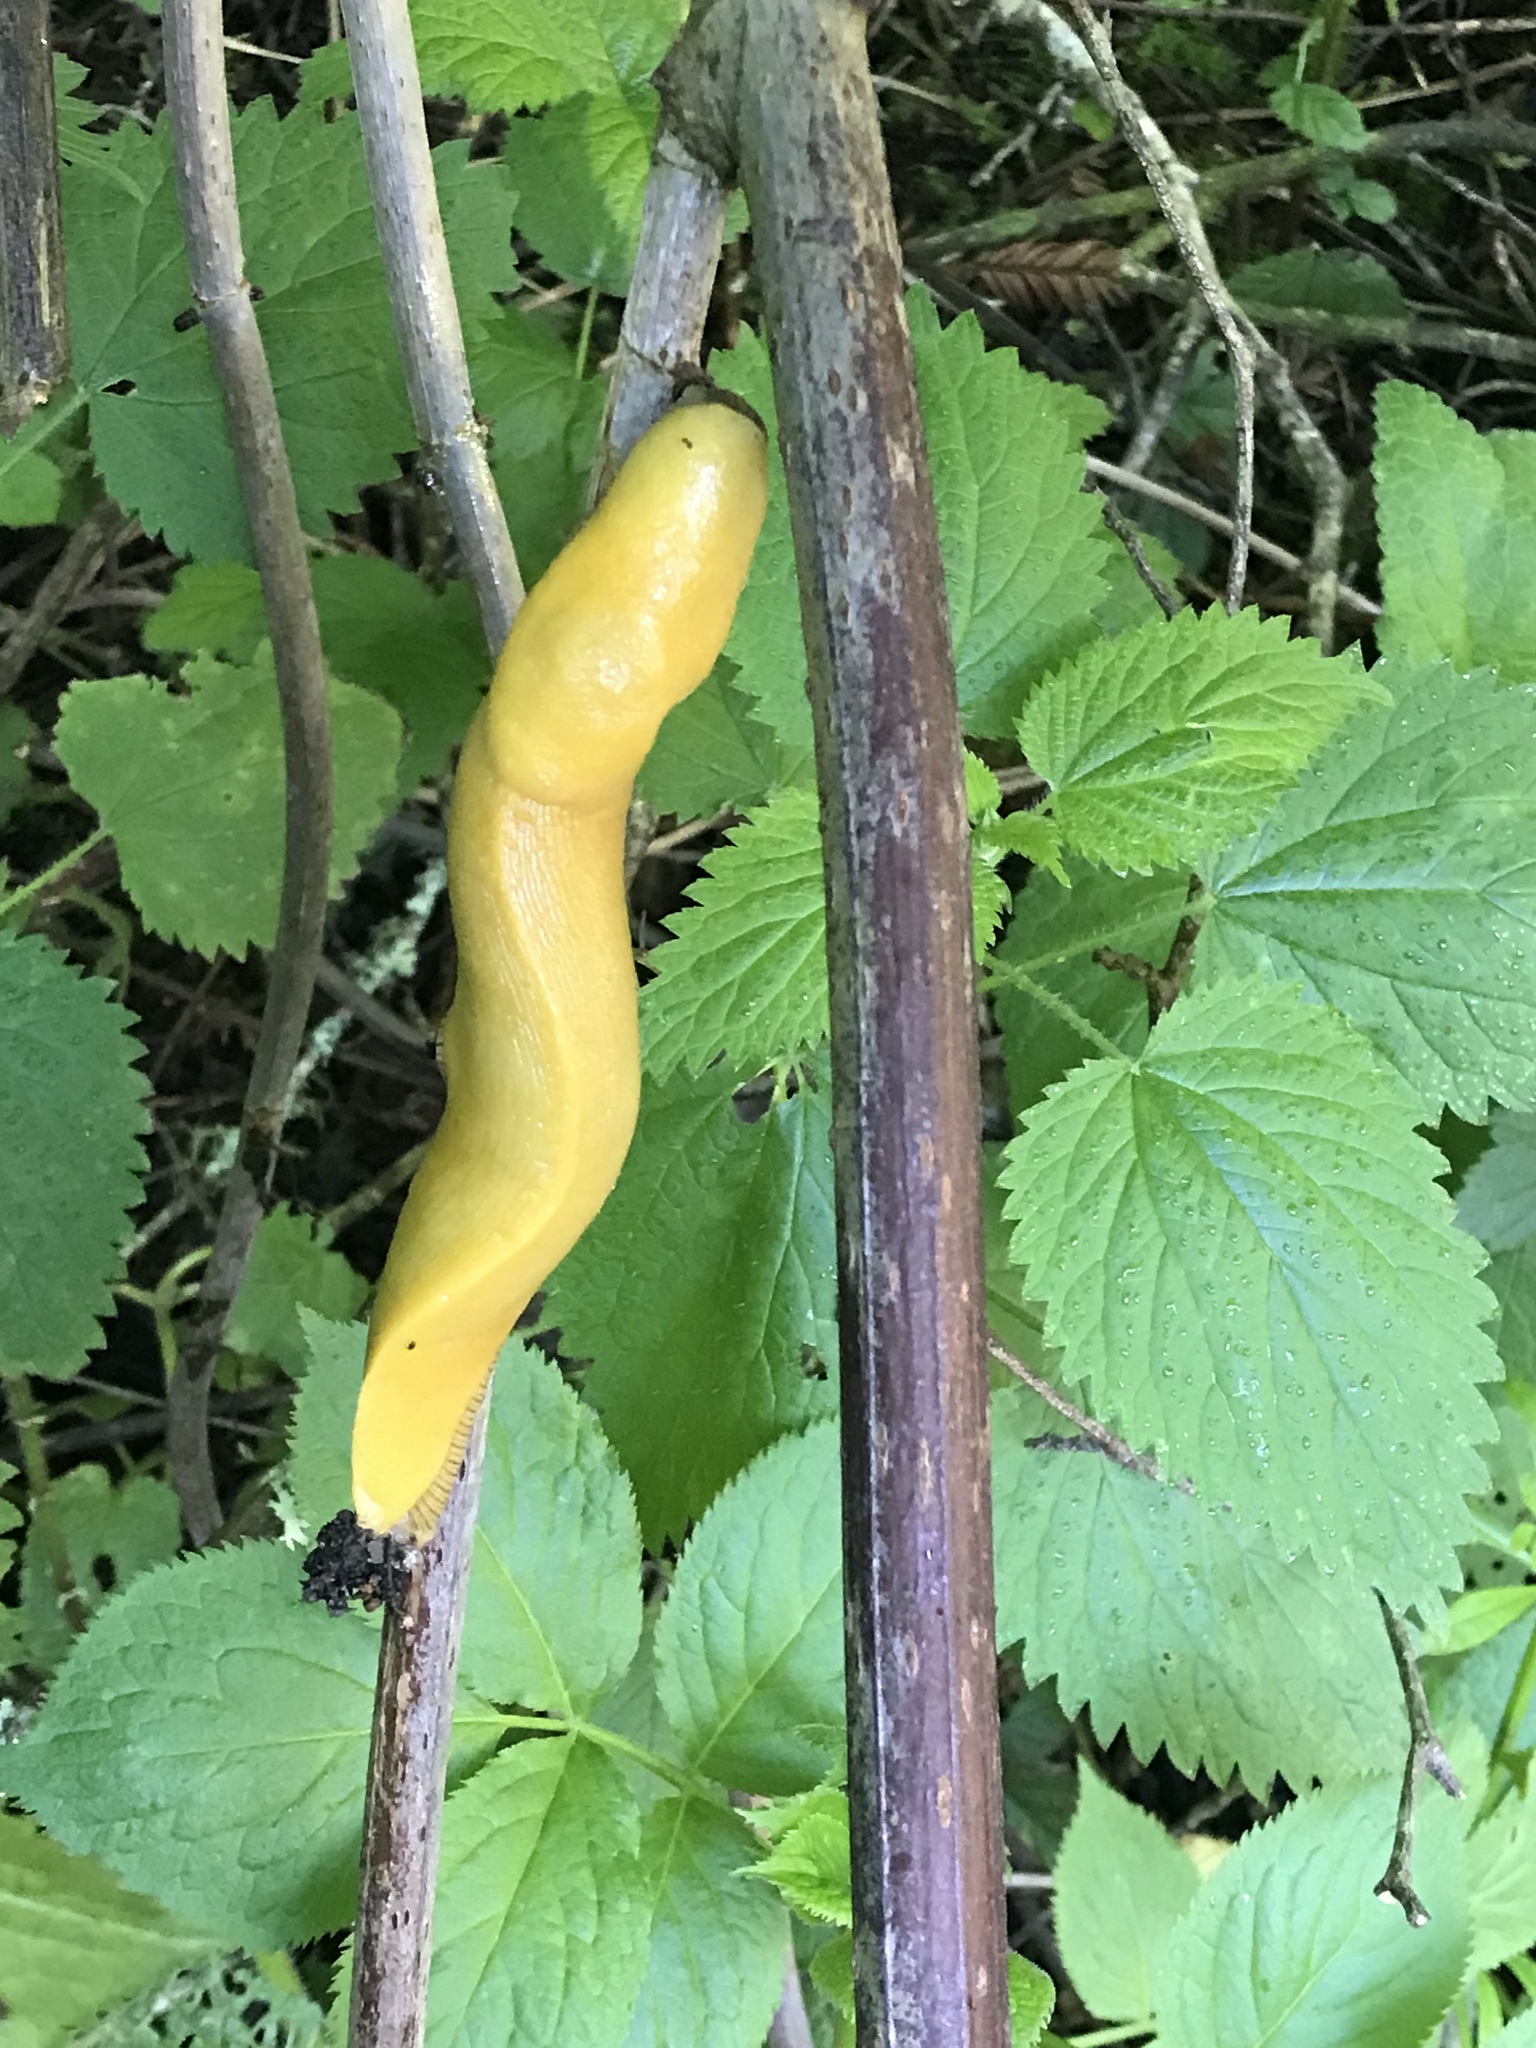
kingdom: Animalia
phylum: Mollusca
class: Gastropoda
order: Stylommatophora
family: Ariolimacidae
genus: Ariolimax
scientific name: Ariolimax californicus
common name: California banana slug
